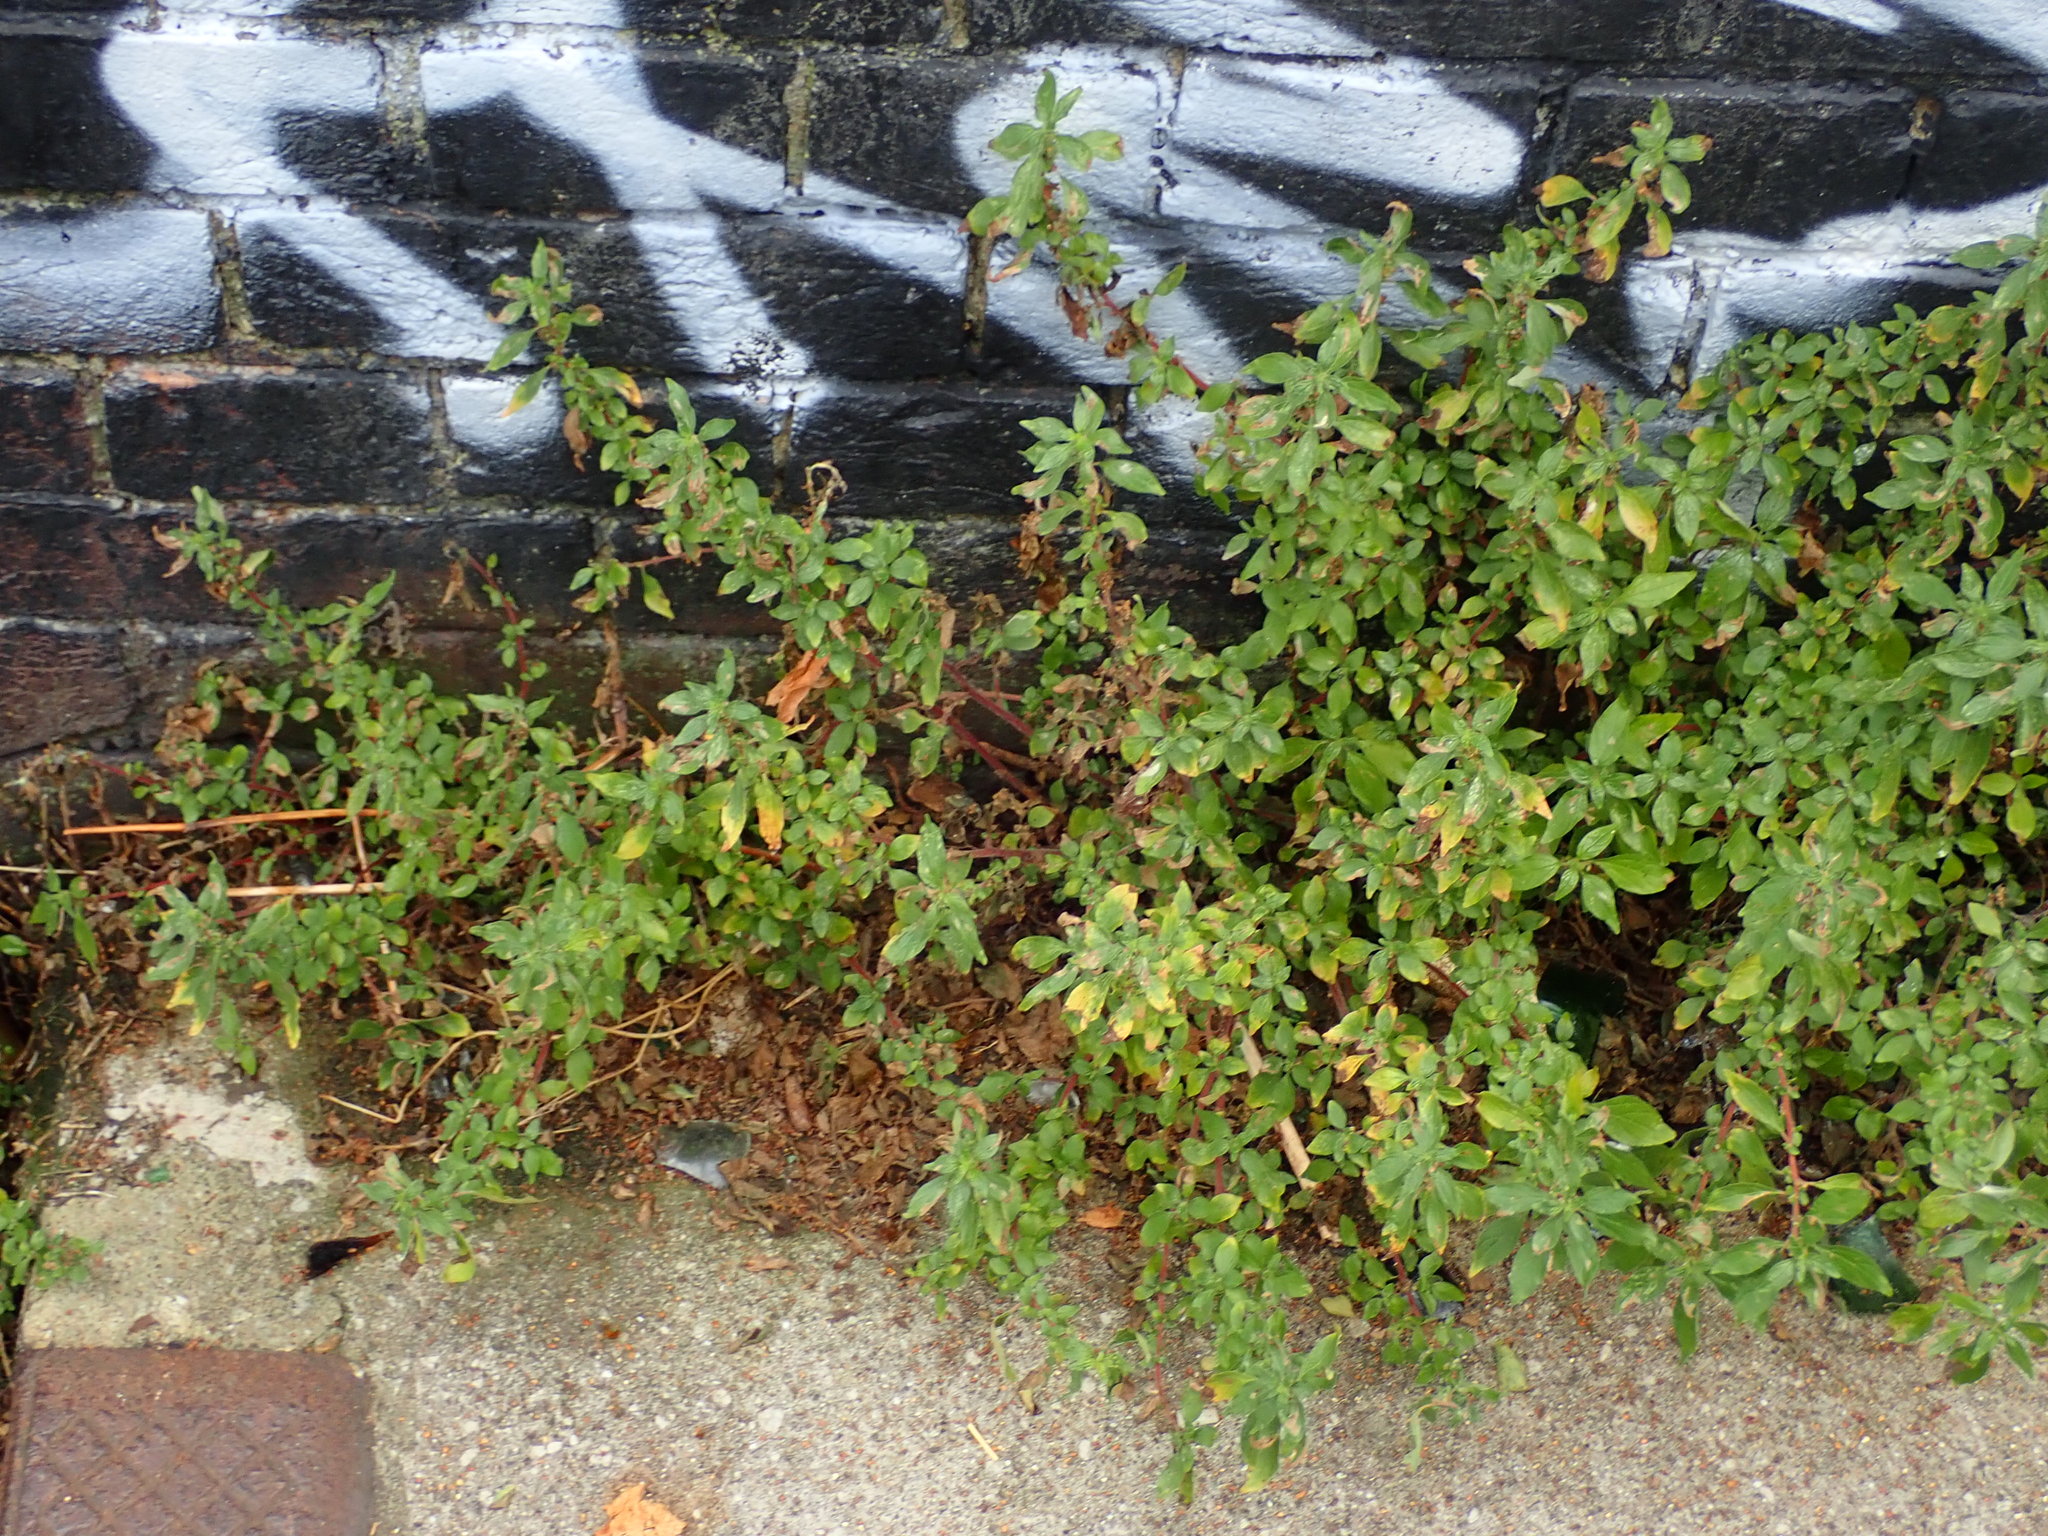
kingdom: Plantae
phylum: Tracheophyta
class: Magnoliopsida
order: Rosales
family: Urticaceae
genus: Parietaria
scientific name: Parietaria judaica
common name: Pellitory-of-the-wall
